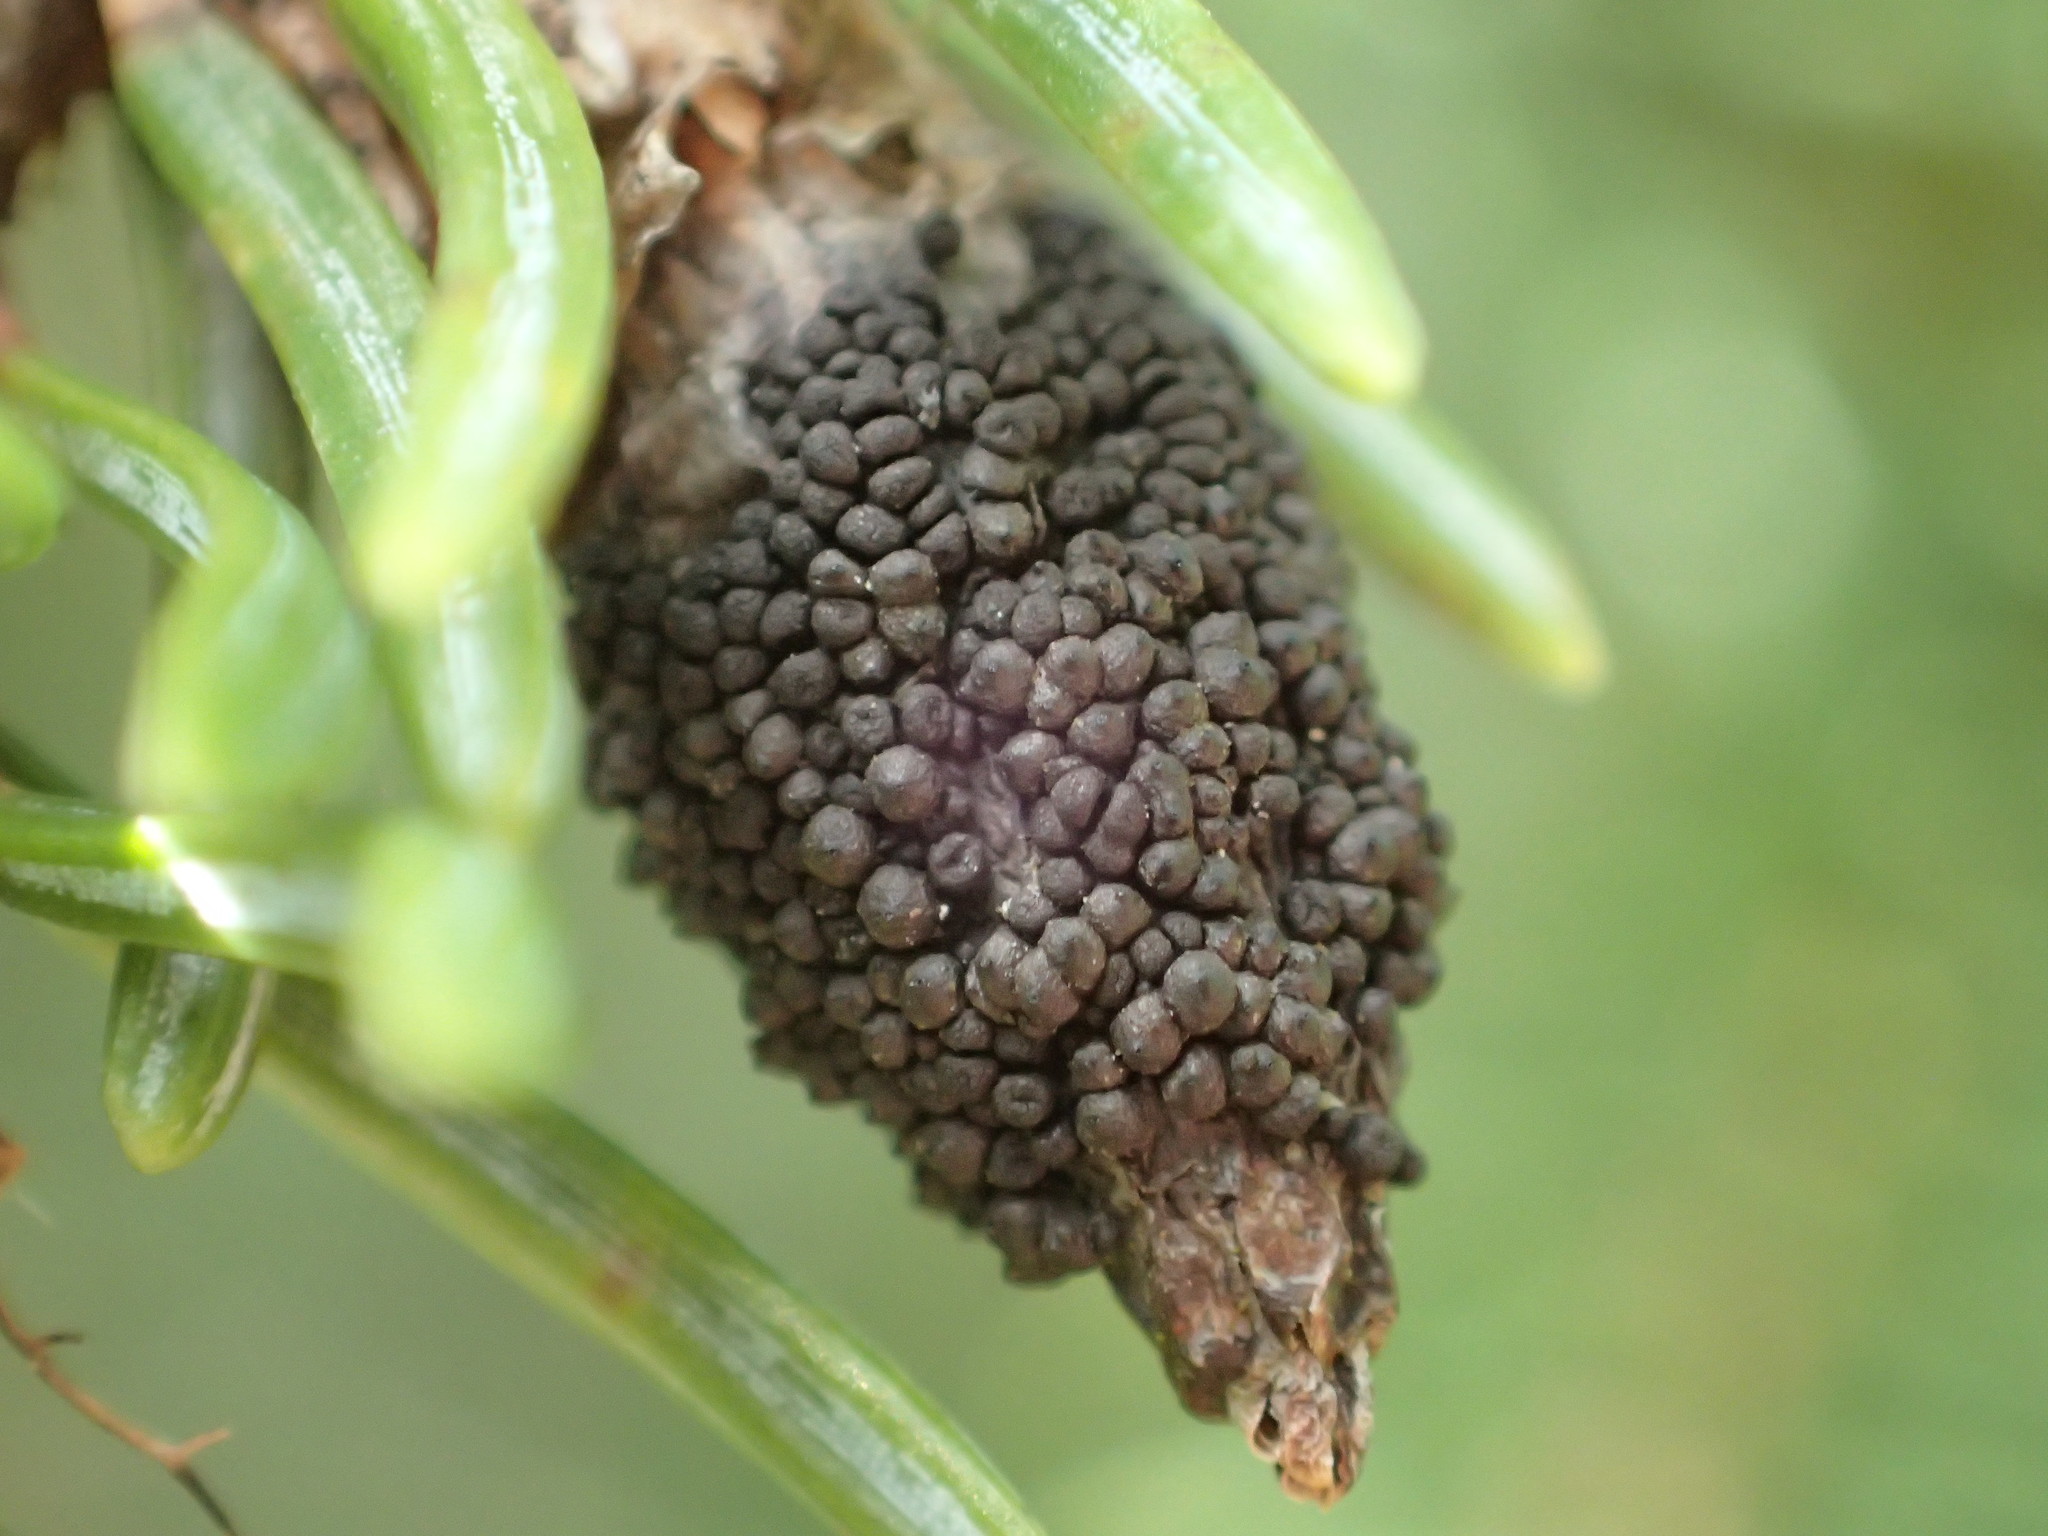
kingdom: Fungi
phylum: Ascomycota
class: Dothideomycetes
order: Pleosporales
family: Cucurbitariaceae
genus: Cucurbitaria
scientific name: Cucurbitaria piceae
